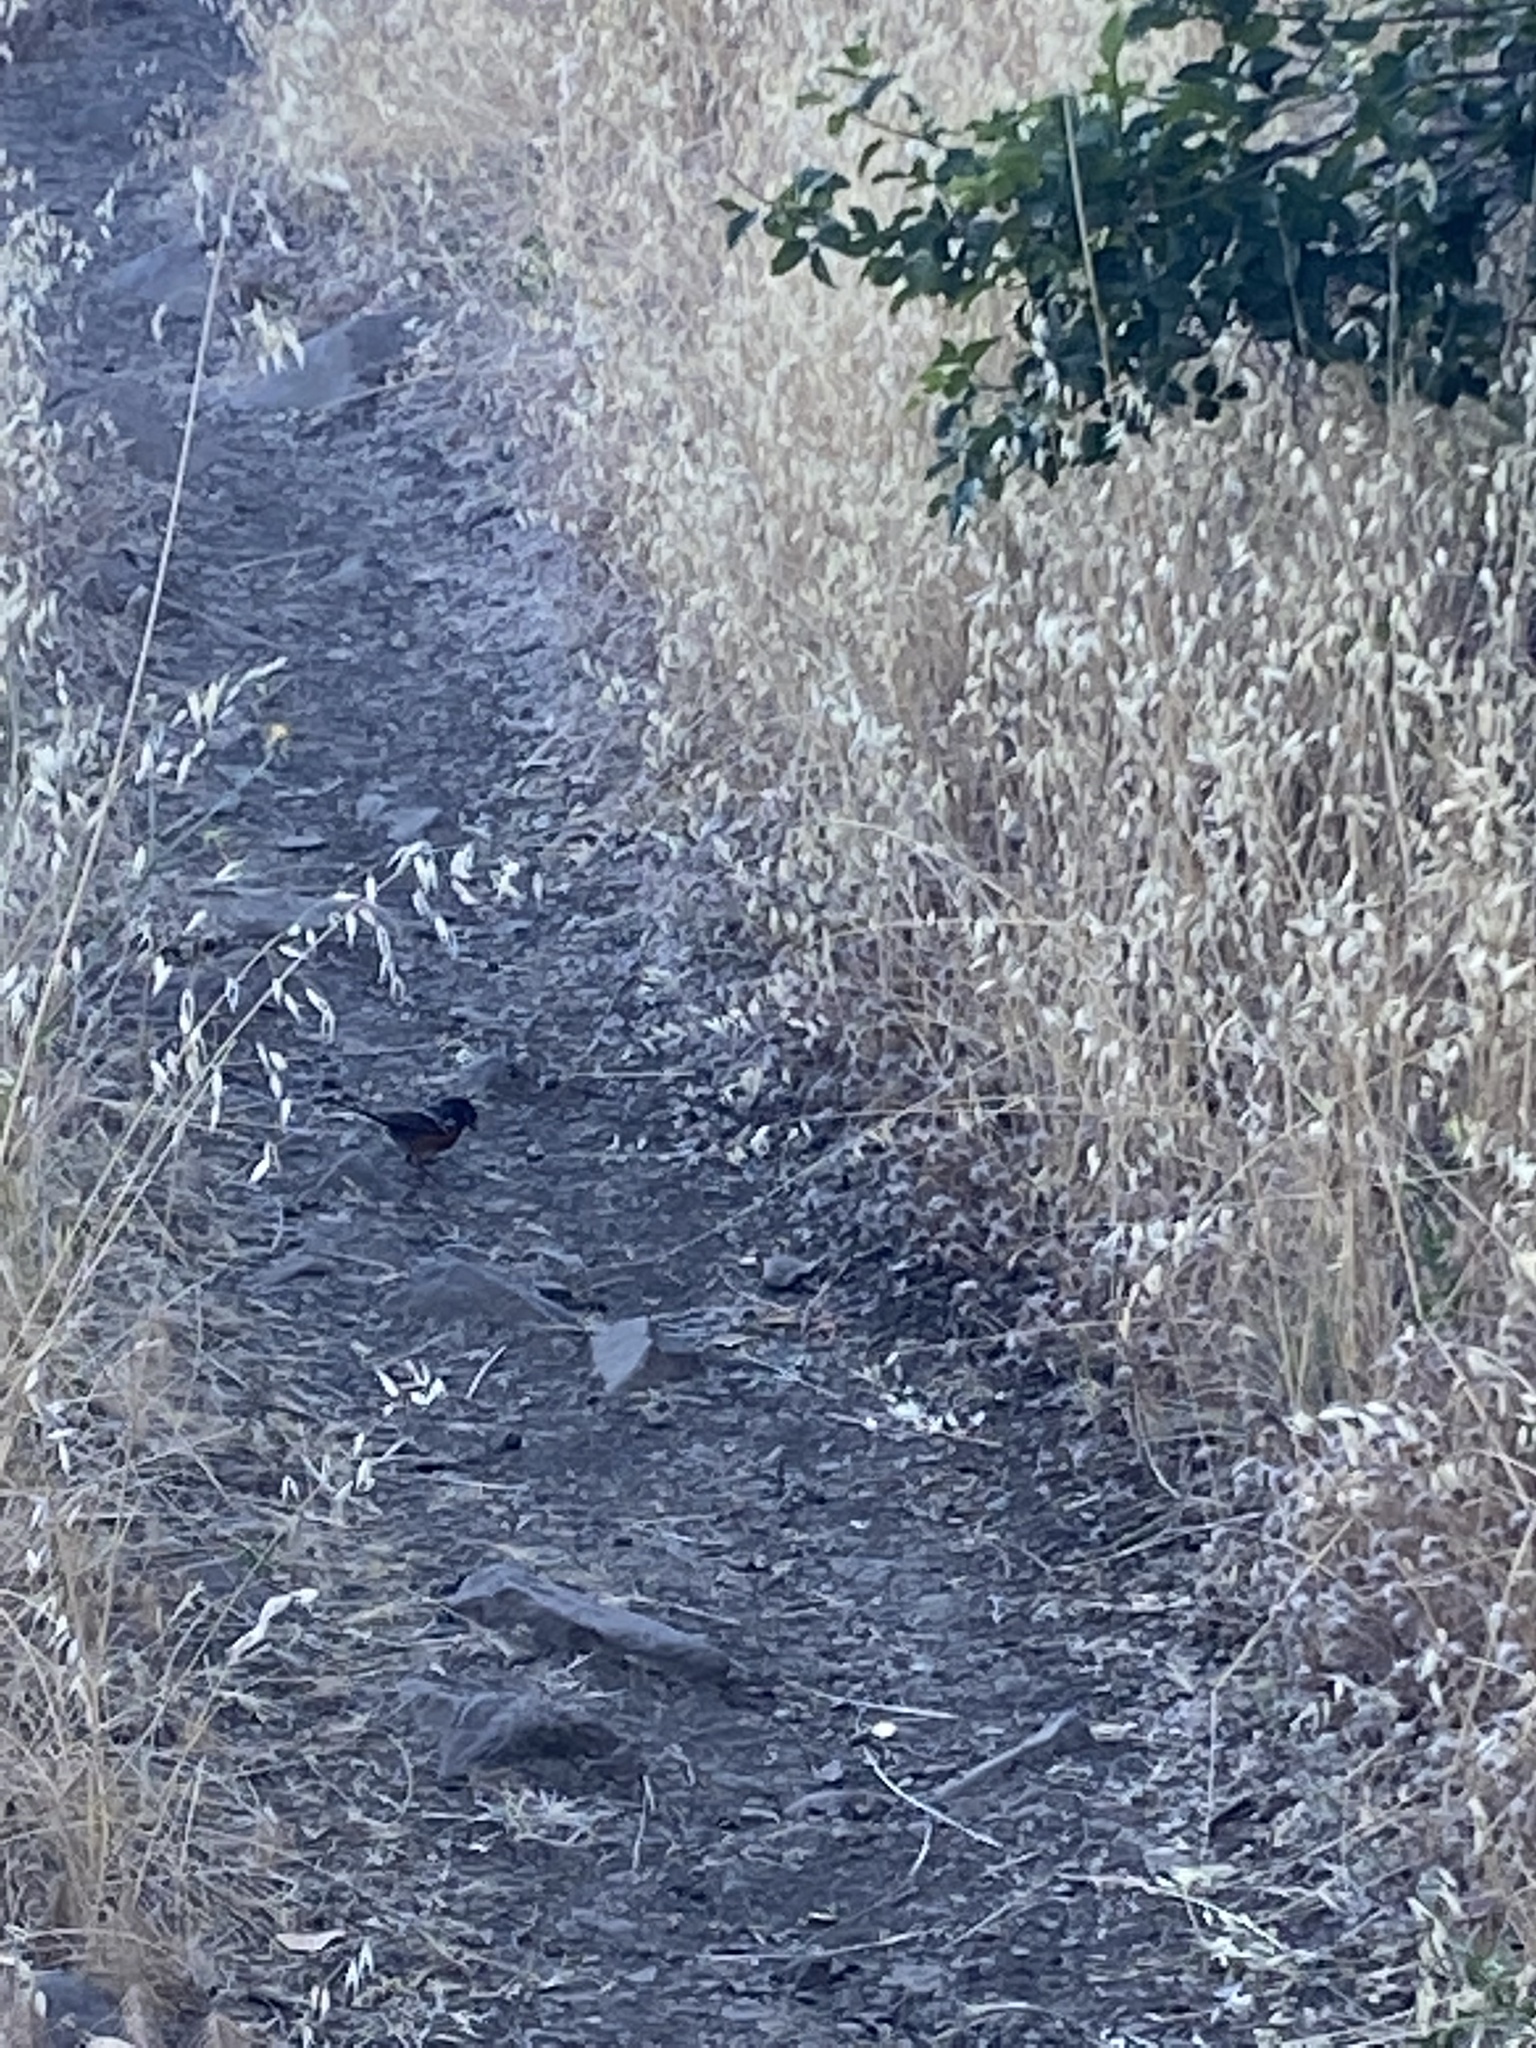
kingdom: Animalia
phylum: Chordata
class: Aves
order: Passeriformes
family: Passerellidae
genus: Pipilo
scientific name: Pipilo maculatus
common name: Spotted towhee
